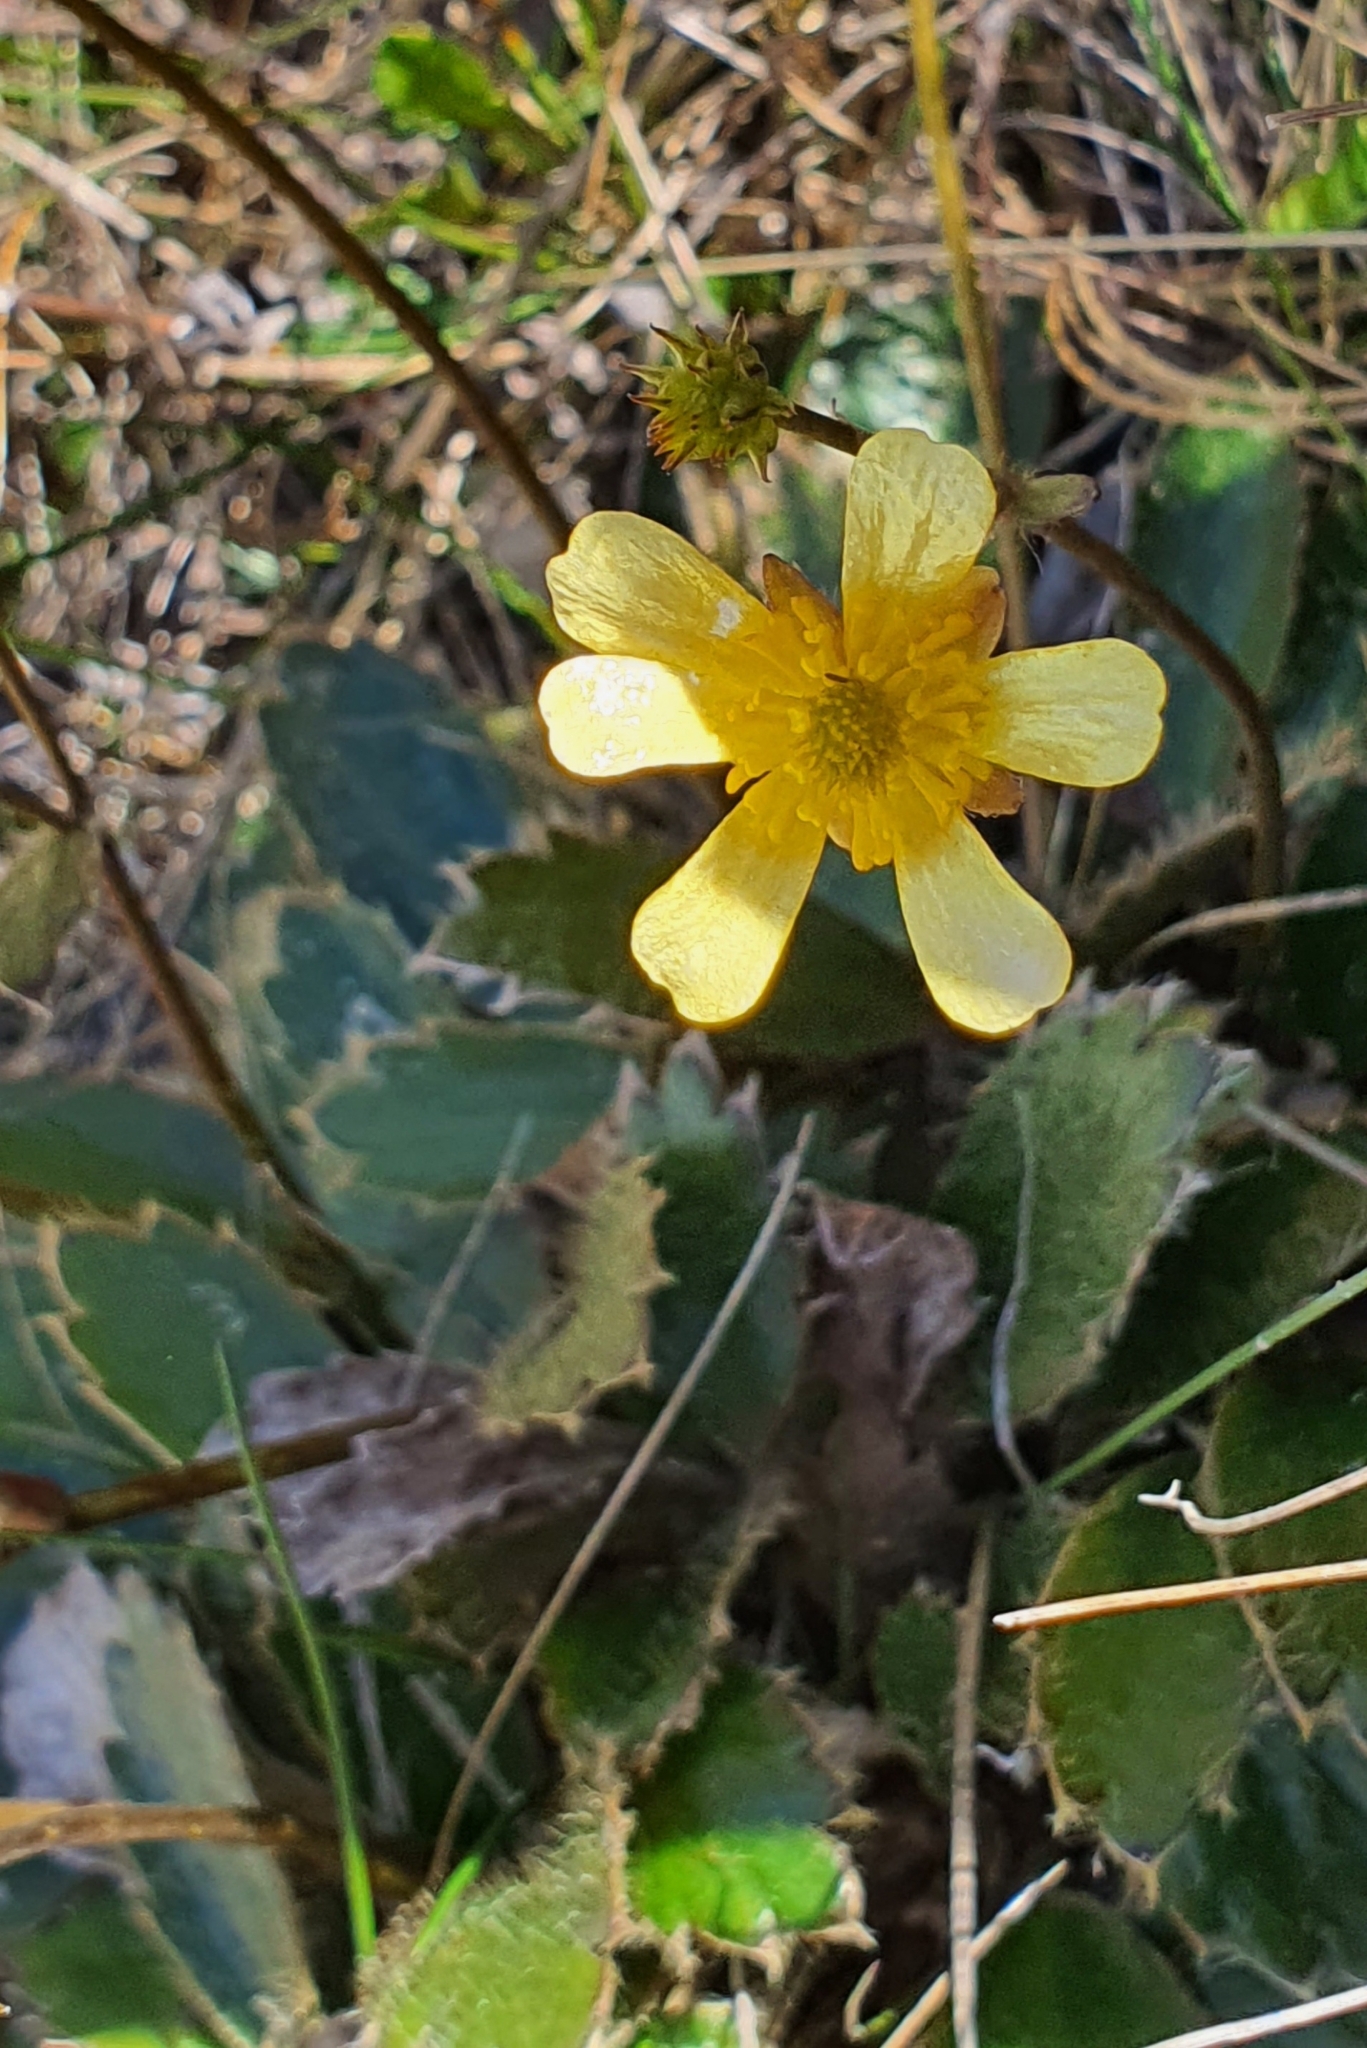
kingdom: Plantae
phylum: Tracheophyta
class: Magnoliopsida
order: Ranunculales
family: Ranunculaceae
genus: Ranunculus
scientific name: Ranunculus insignis
